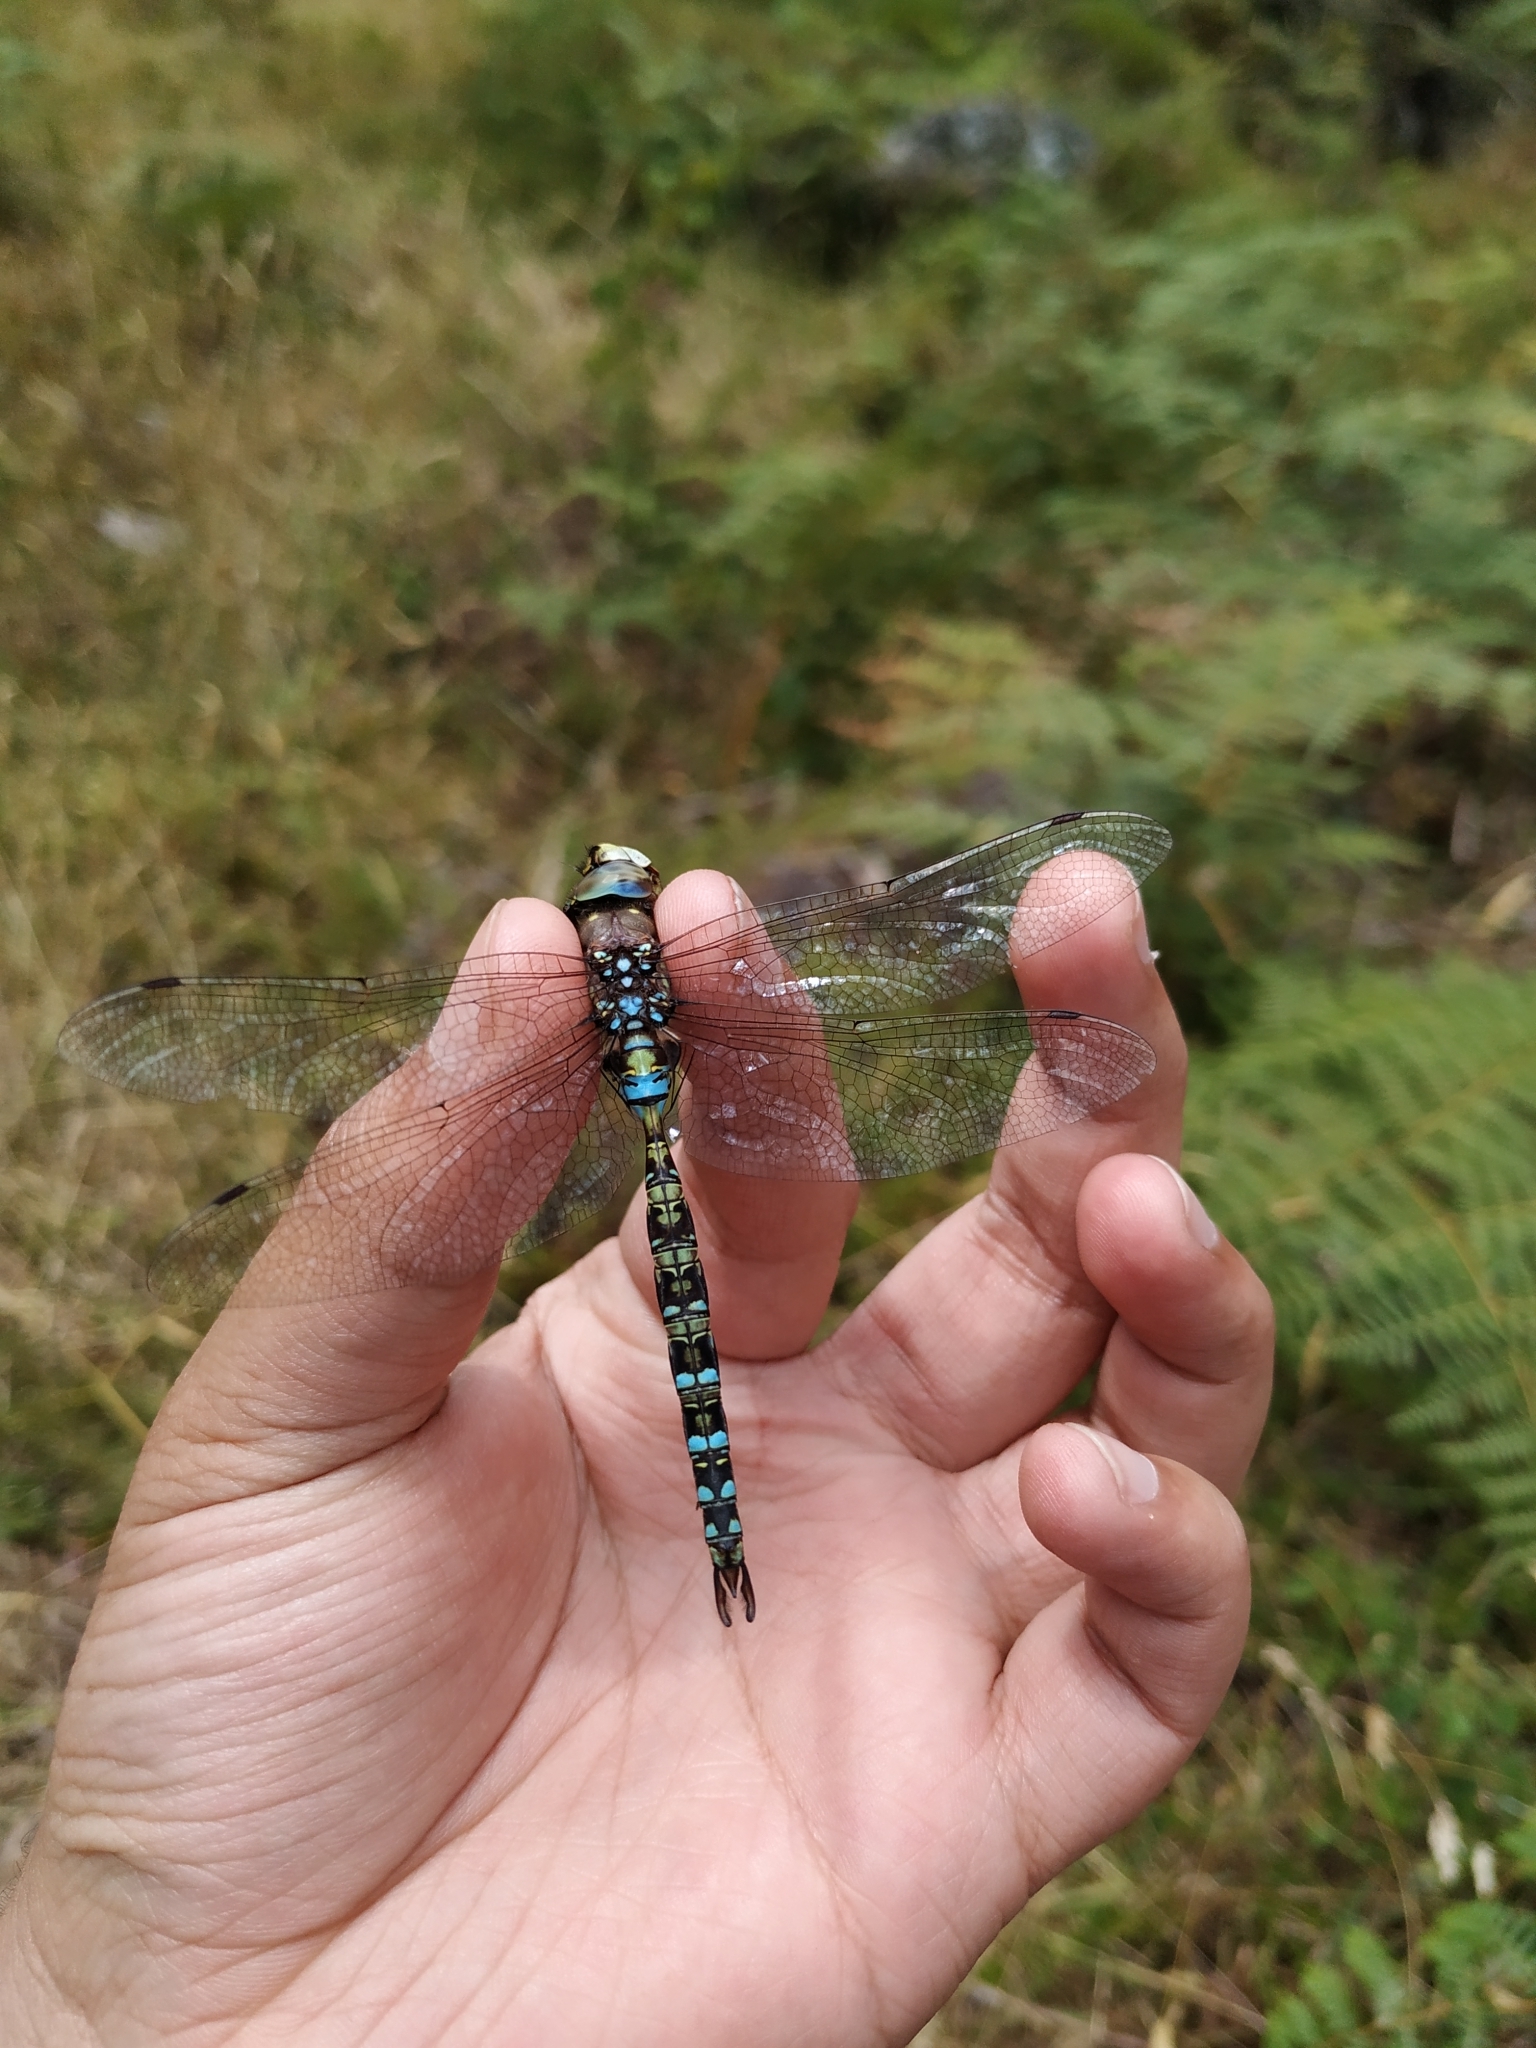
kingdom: Animalia
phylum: Arthropoda
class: Insecta
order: Odonata
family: Aeshnidae
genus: Rhionaeschna
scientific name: Rhionaeschna marchali
